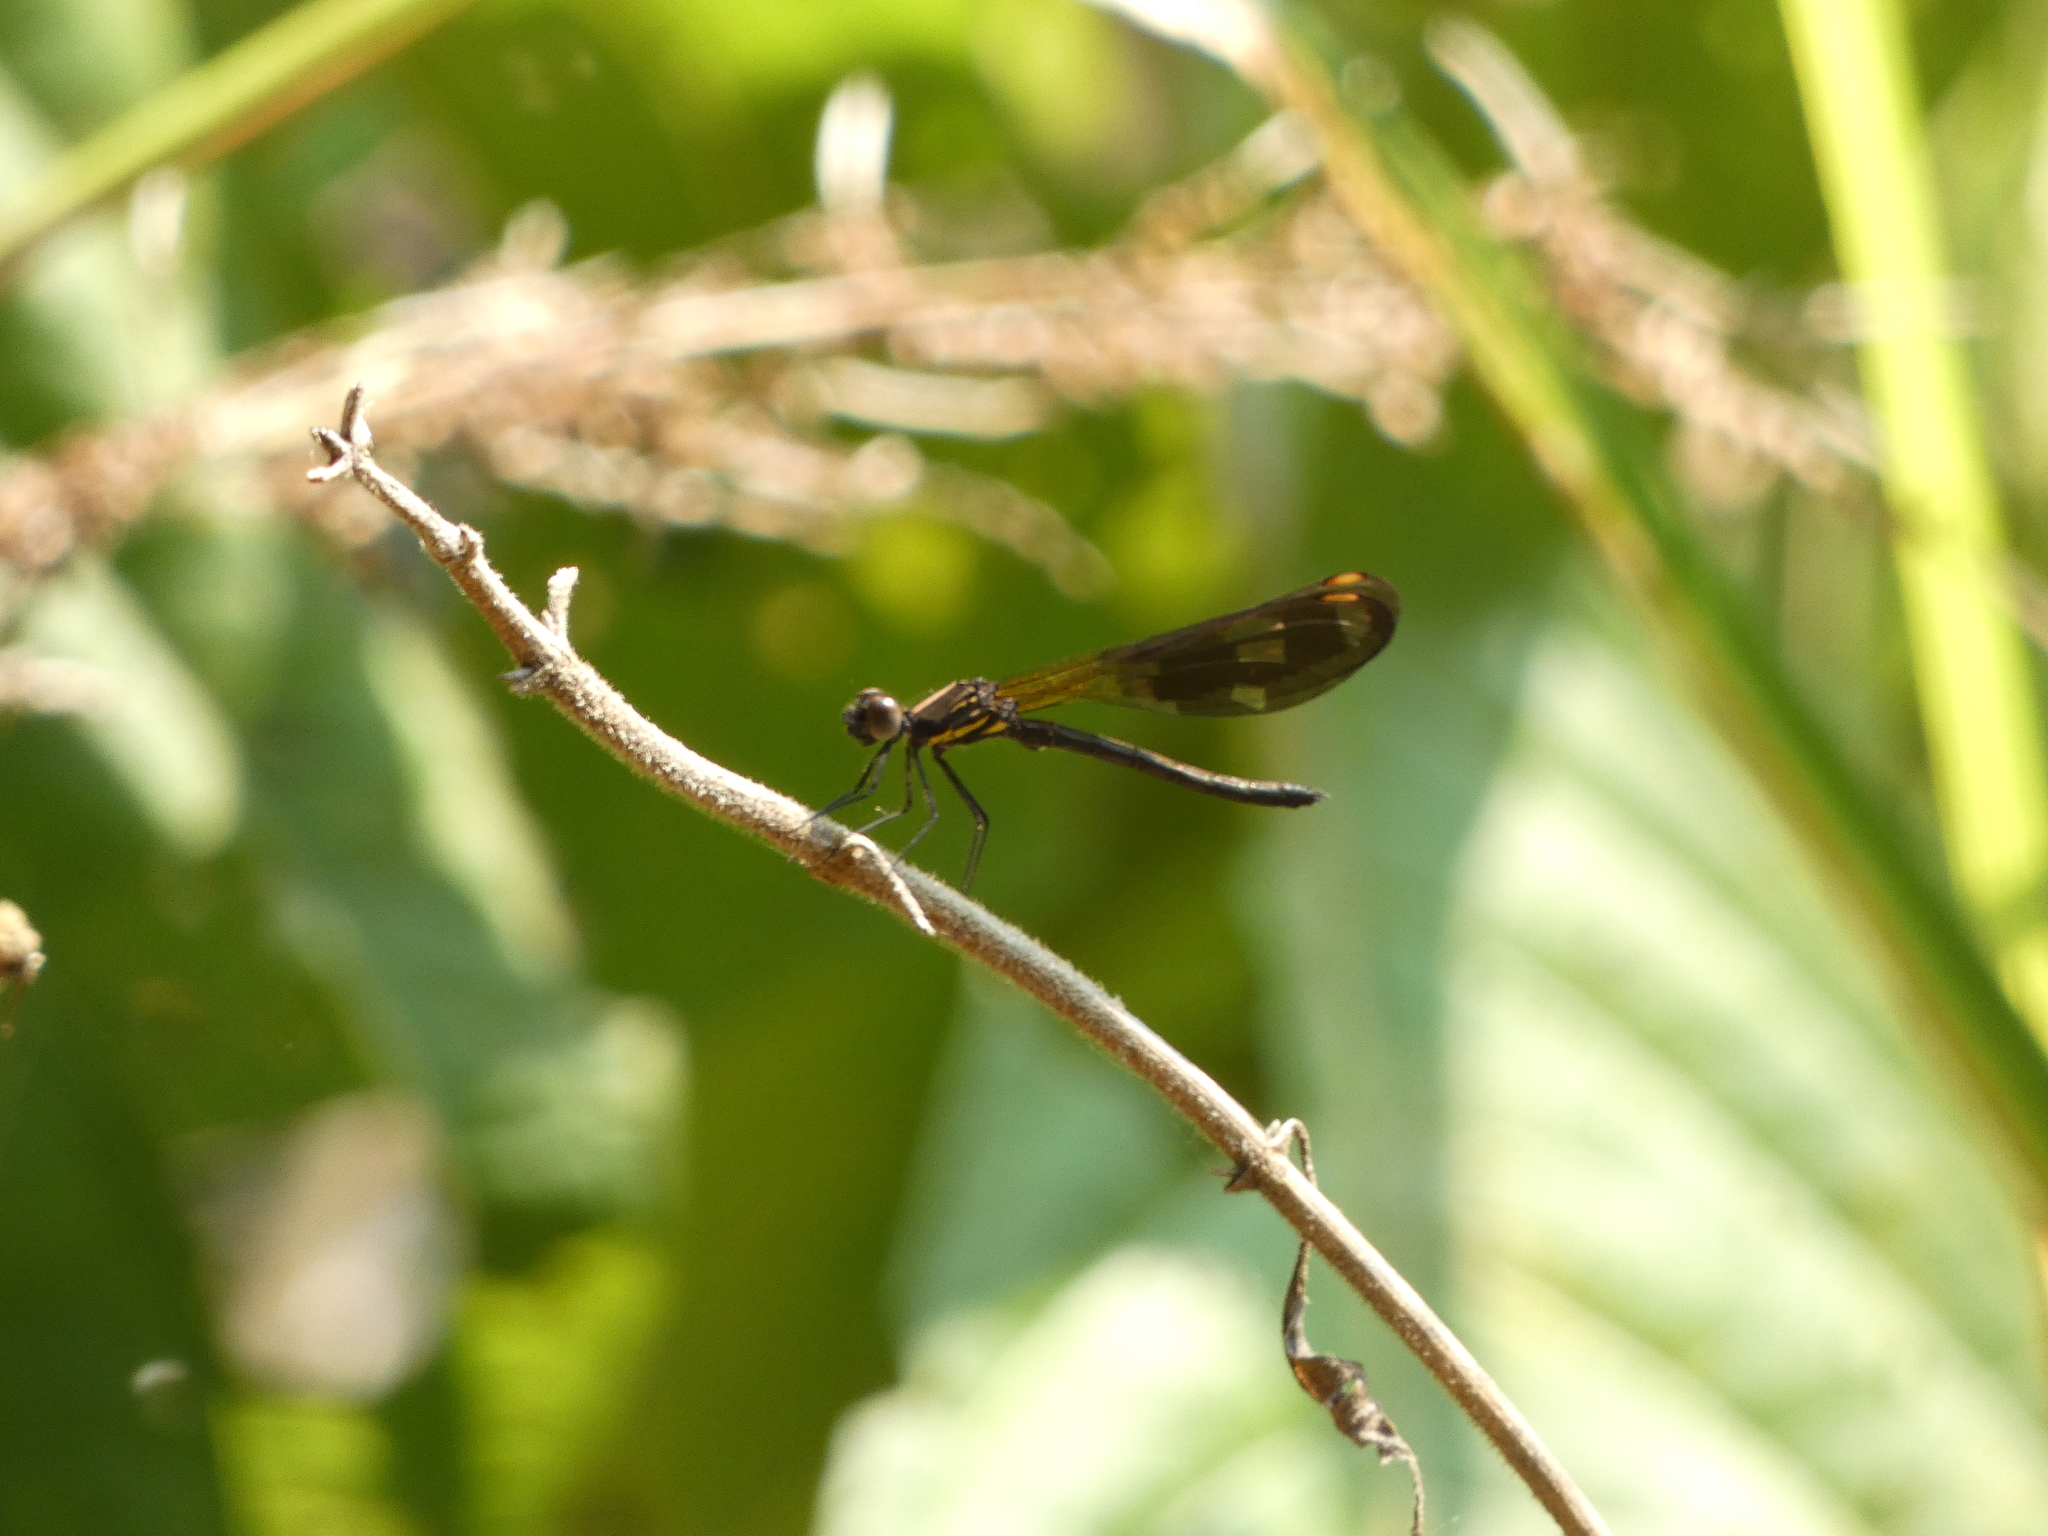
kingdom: Animalia
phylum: Arthropoda
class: Insecta
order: Odonata
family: Chlorocyphidae
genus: Aristocypha
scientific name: Aristocypha fenestrella
